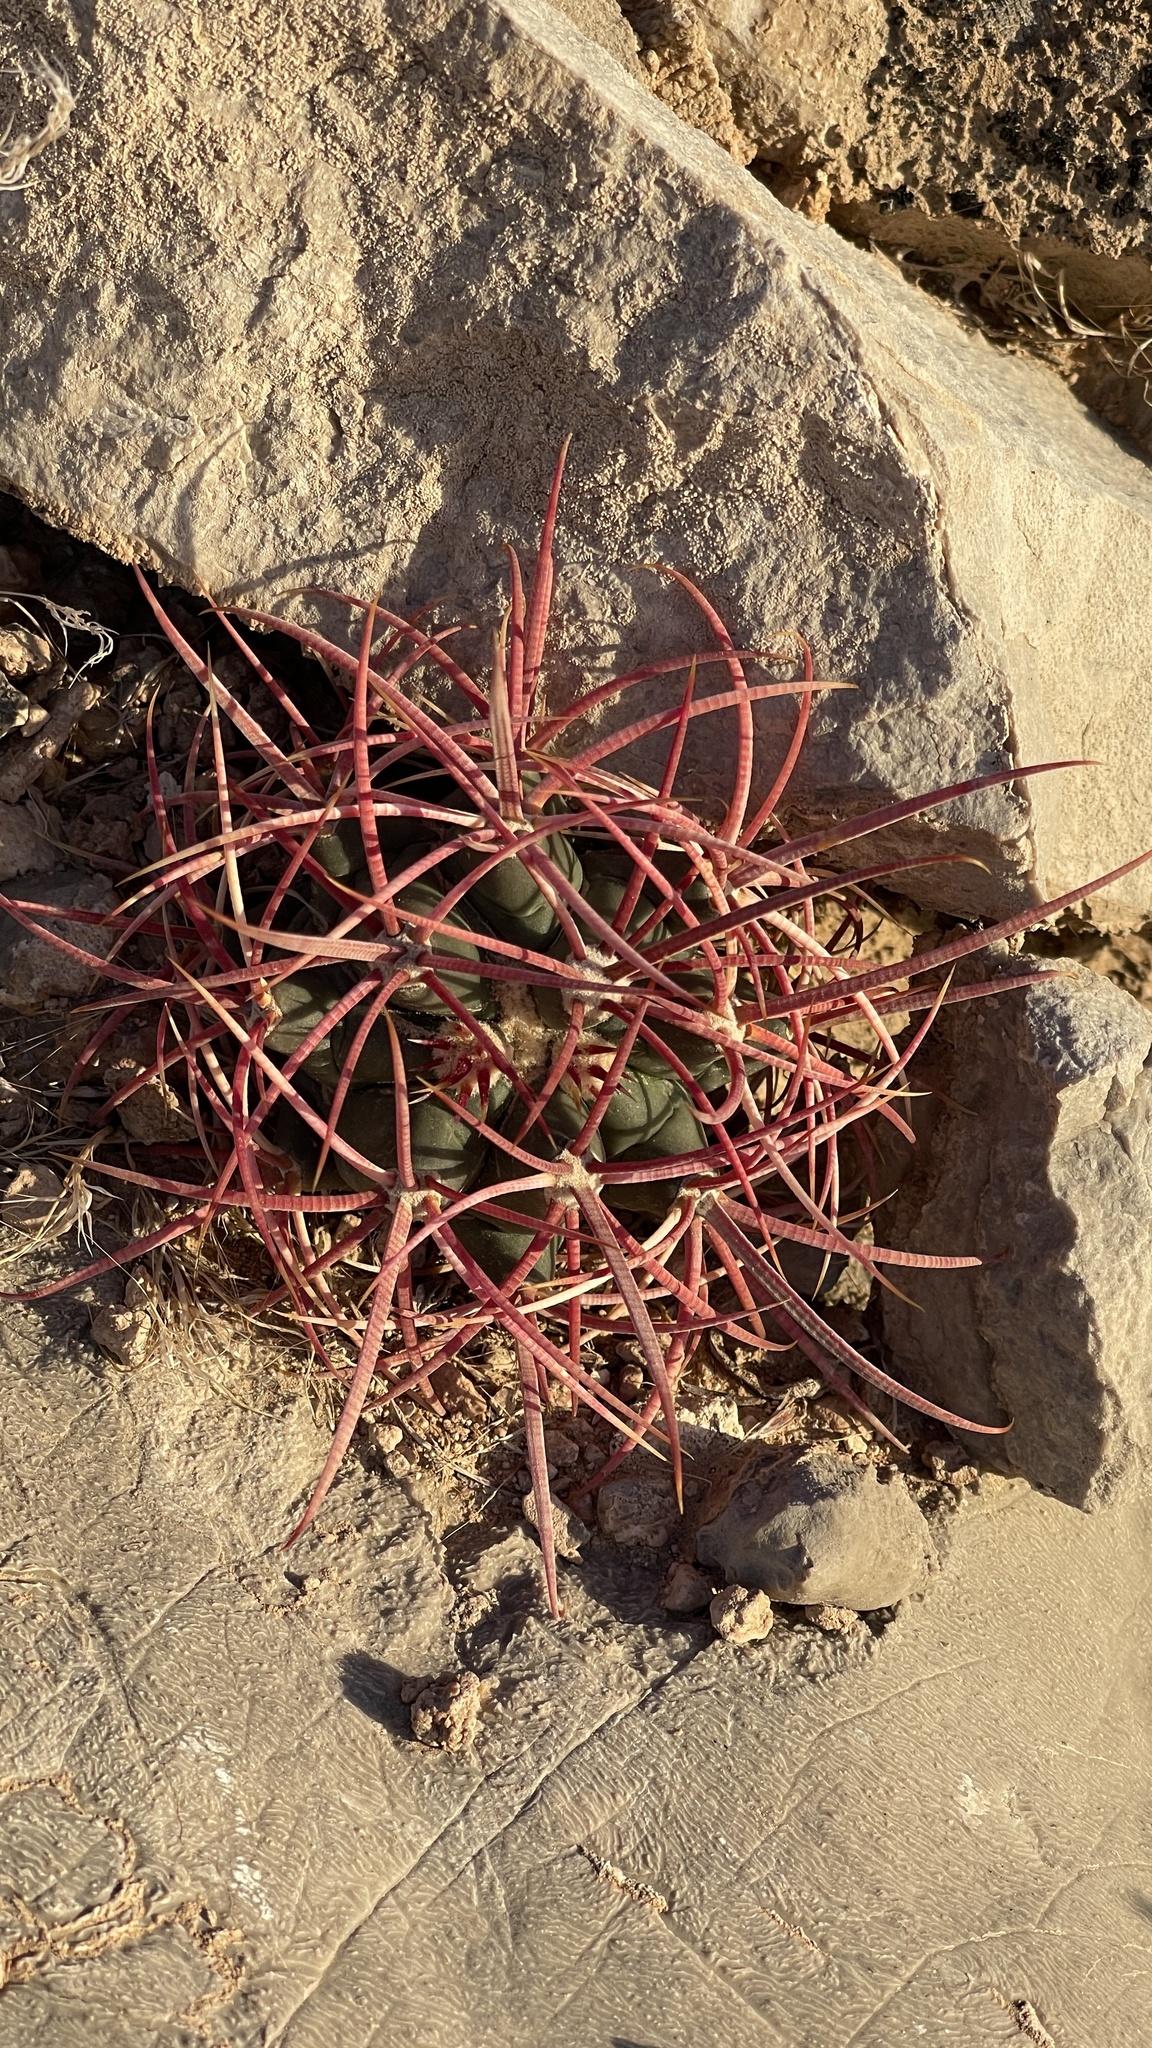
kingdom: Plantae
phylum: Tracheophyta
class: Magnoliopsida
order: Caryophyllales
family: Cactaceae
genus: Ferocactus
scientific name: Ferocactus cylindraceus
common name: California barrel cactus
